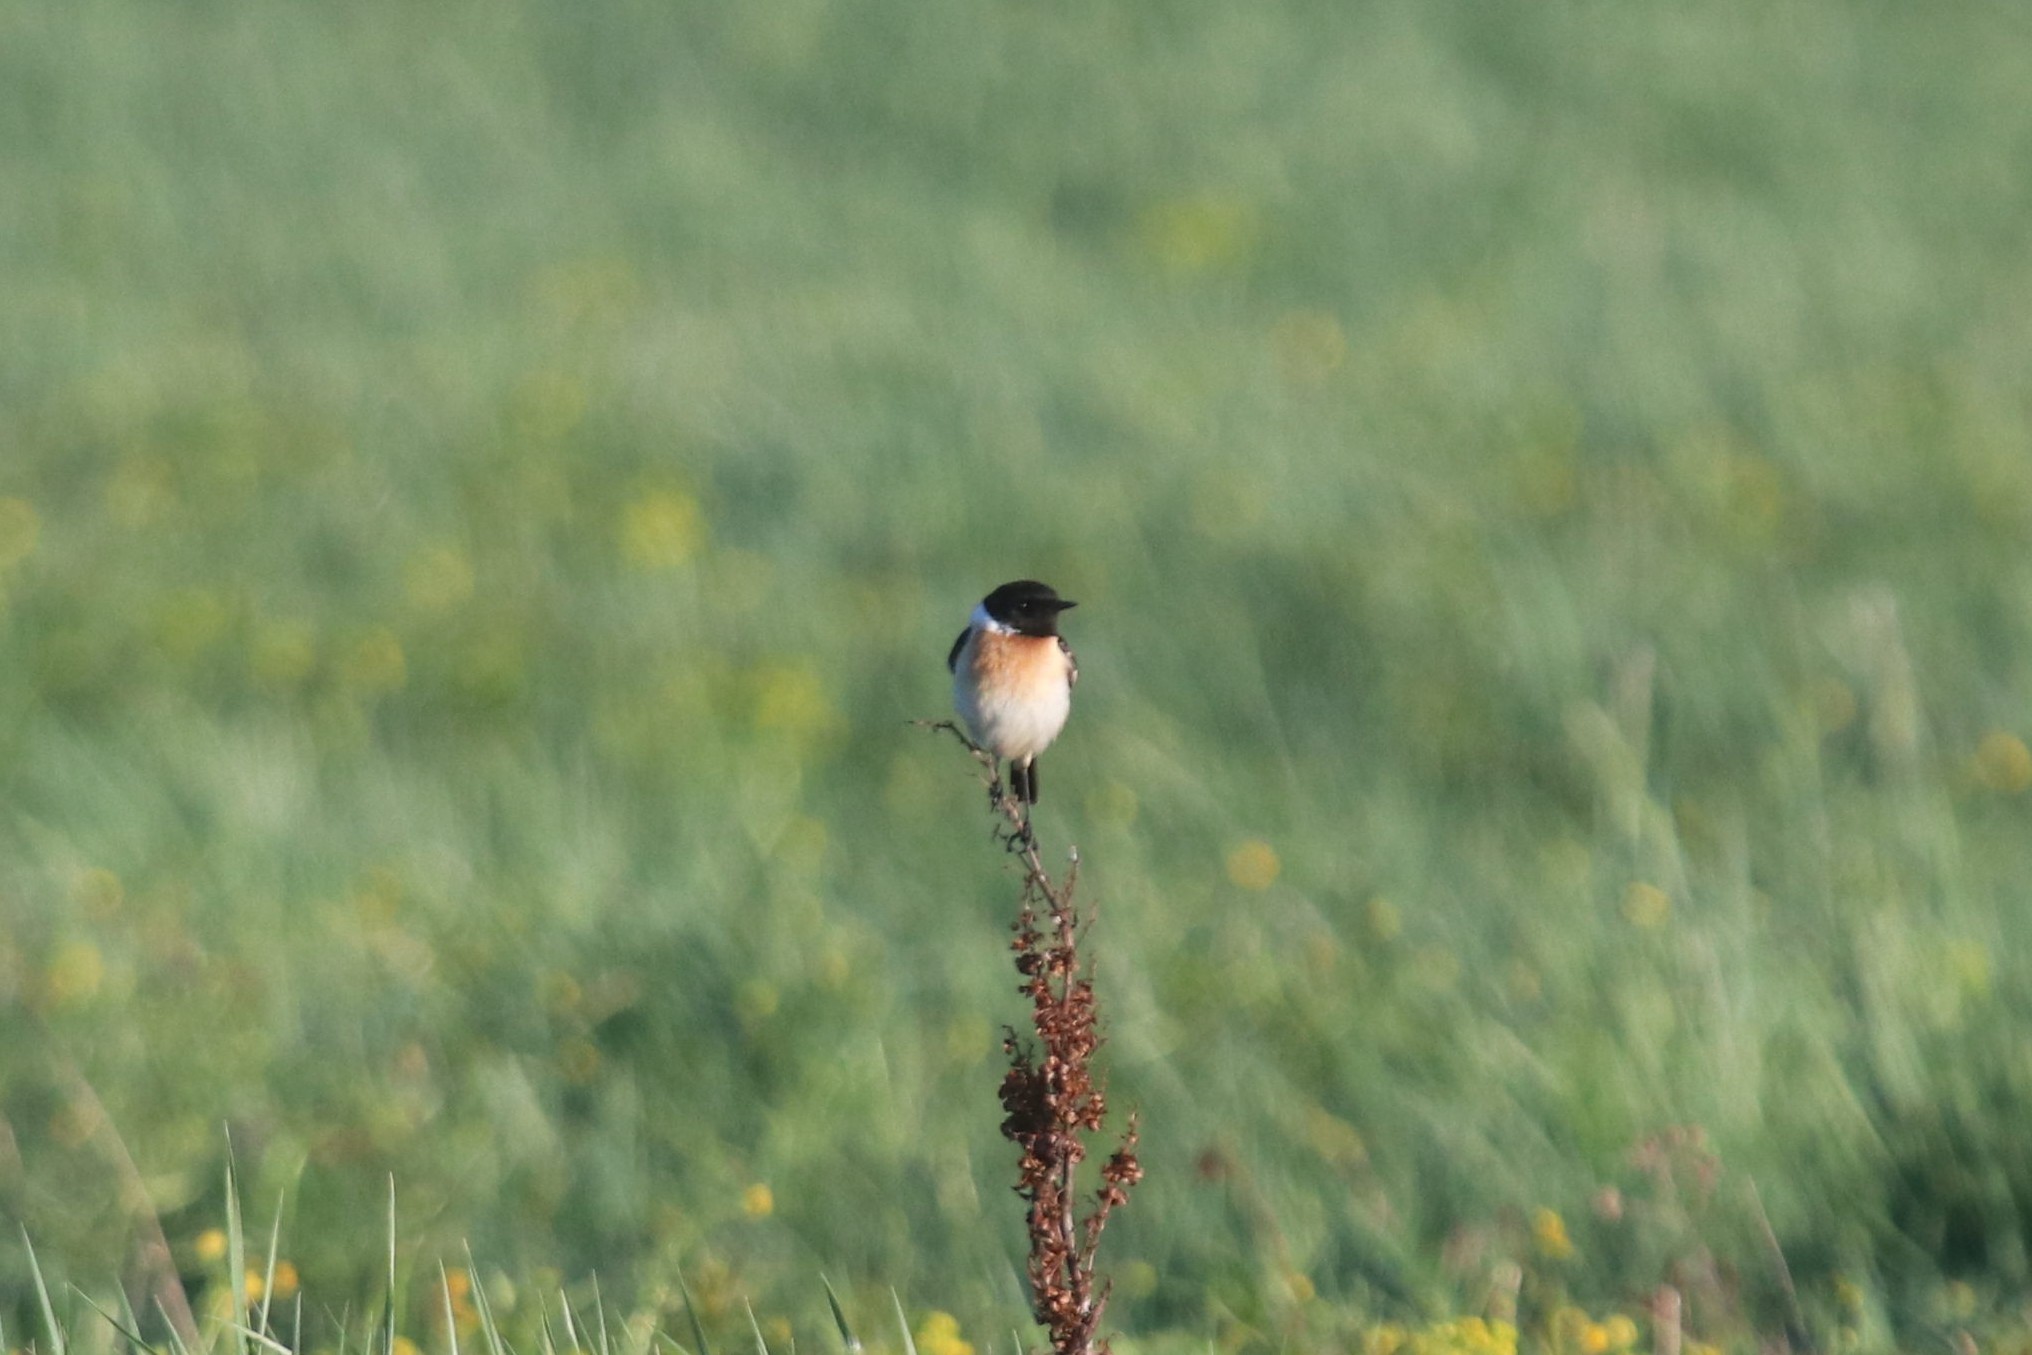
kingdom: Animalia
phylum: Chordata
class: Aves
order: Passeriformes
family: Muscicapidae
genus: Saxicola
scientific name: Saxicola maurus
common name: Siberian stonechat
